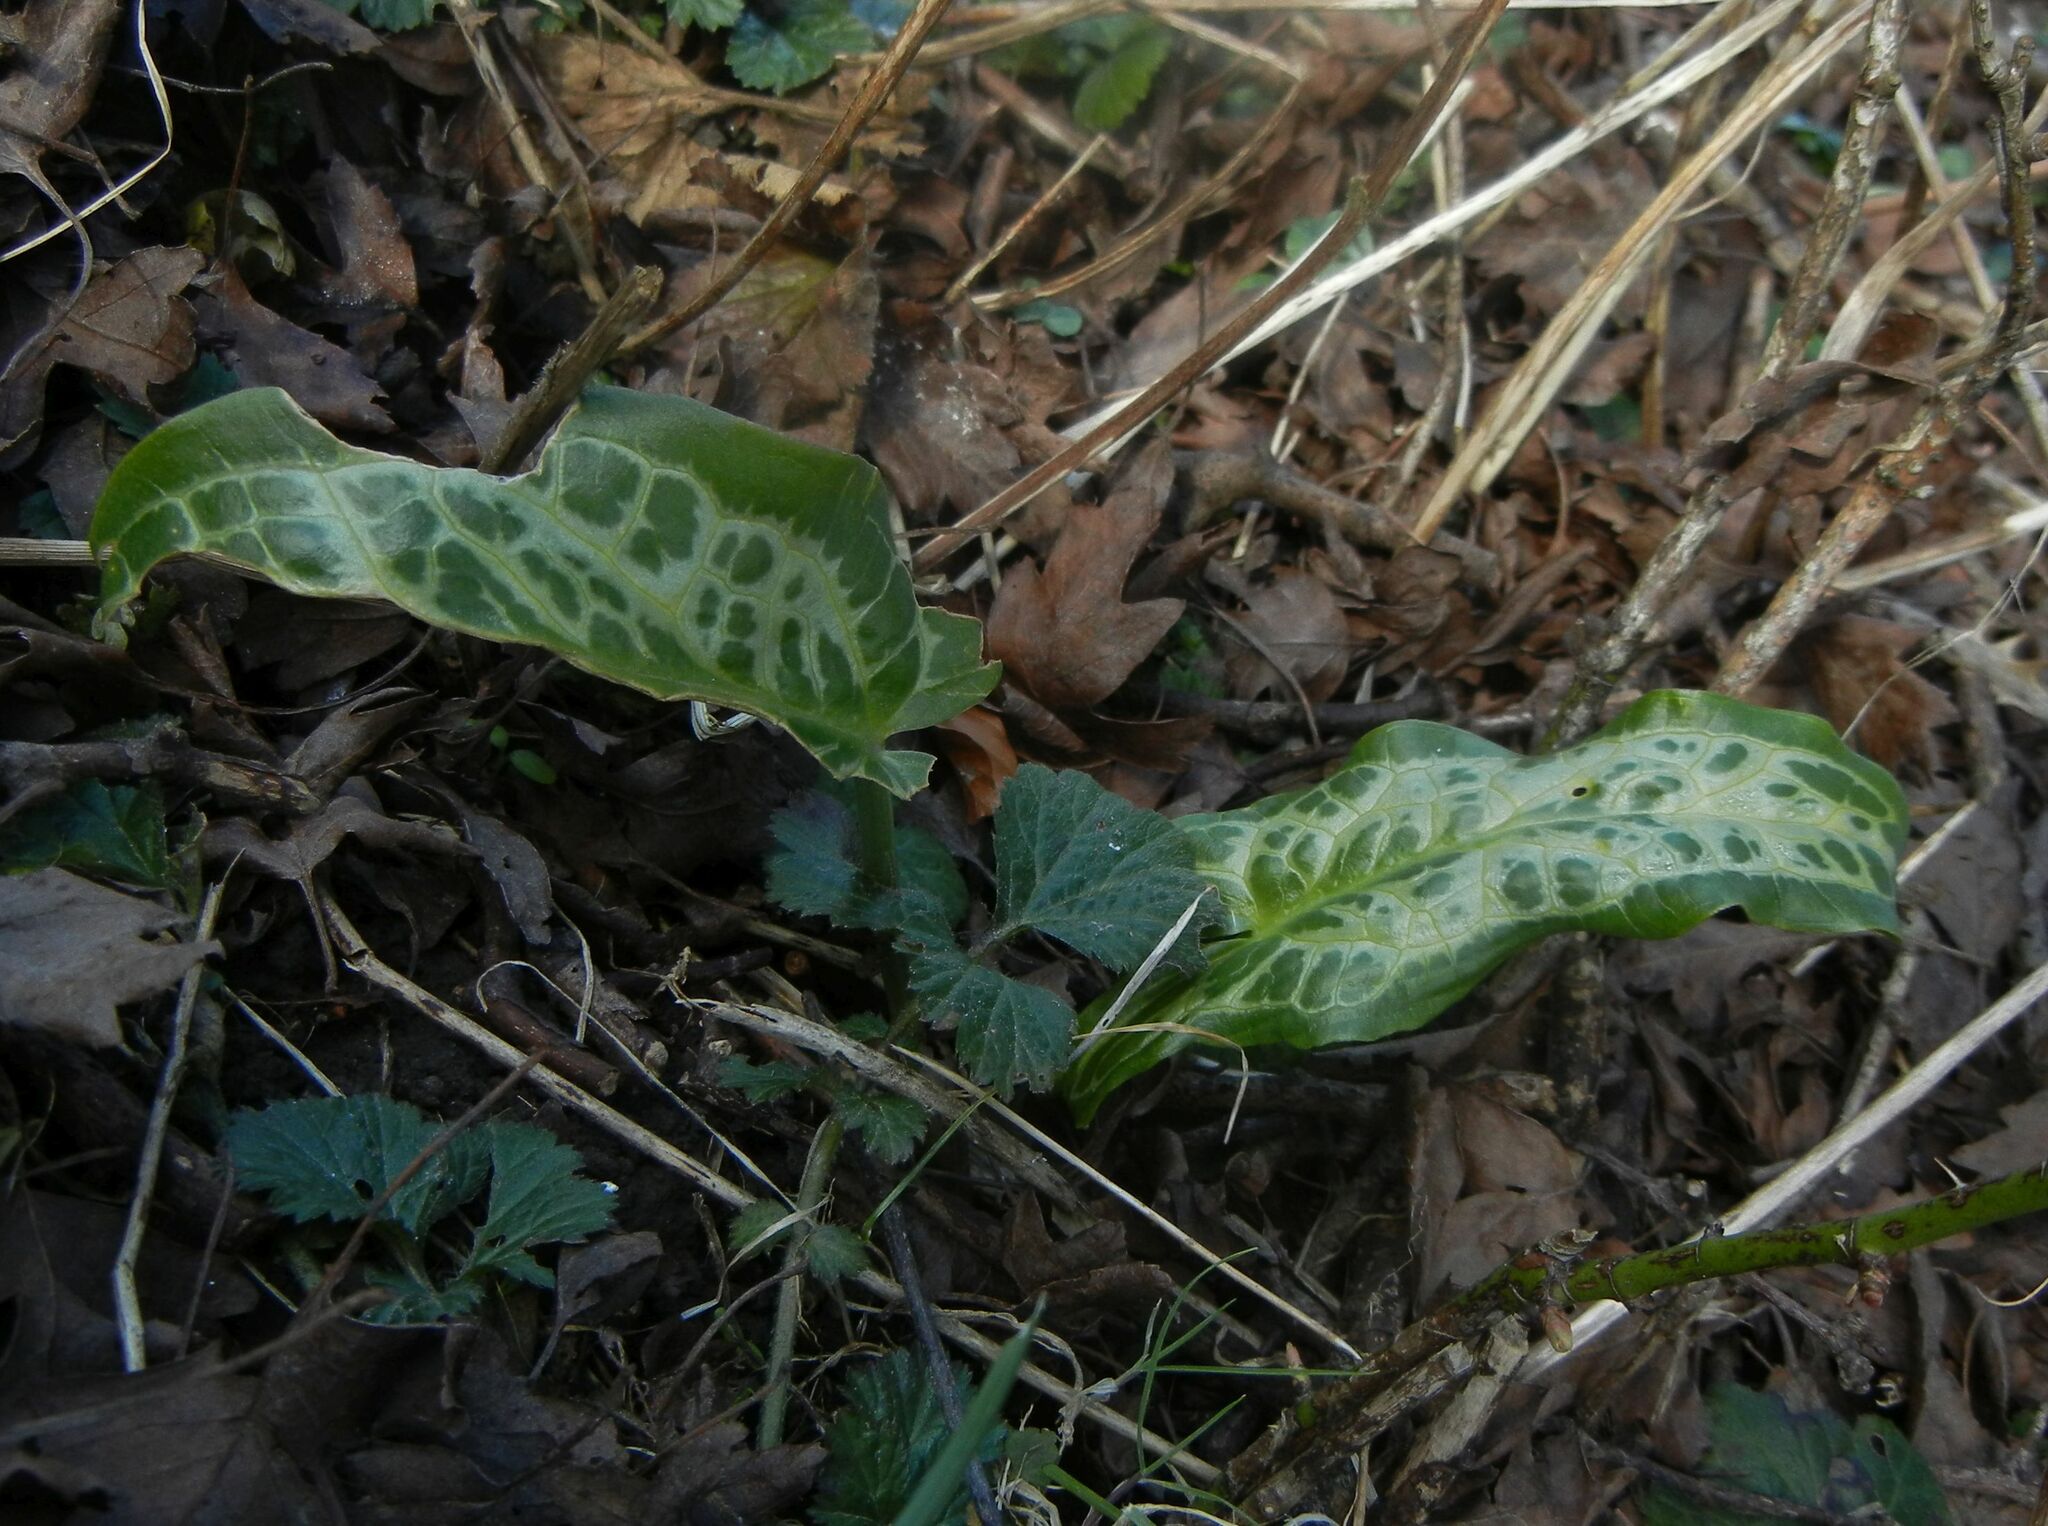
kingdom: Plantae
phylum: Tracheophyta
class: Liliopsida
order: Alismatales
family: Araceae
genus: Arum
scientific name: Arum italicum
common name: Italian lords-and-ladies
